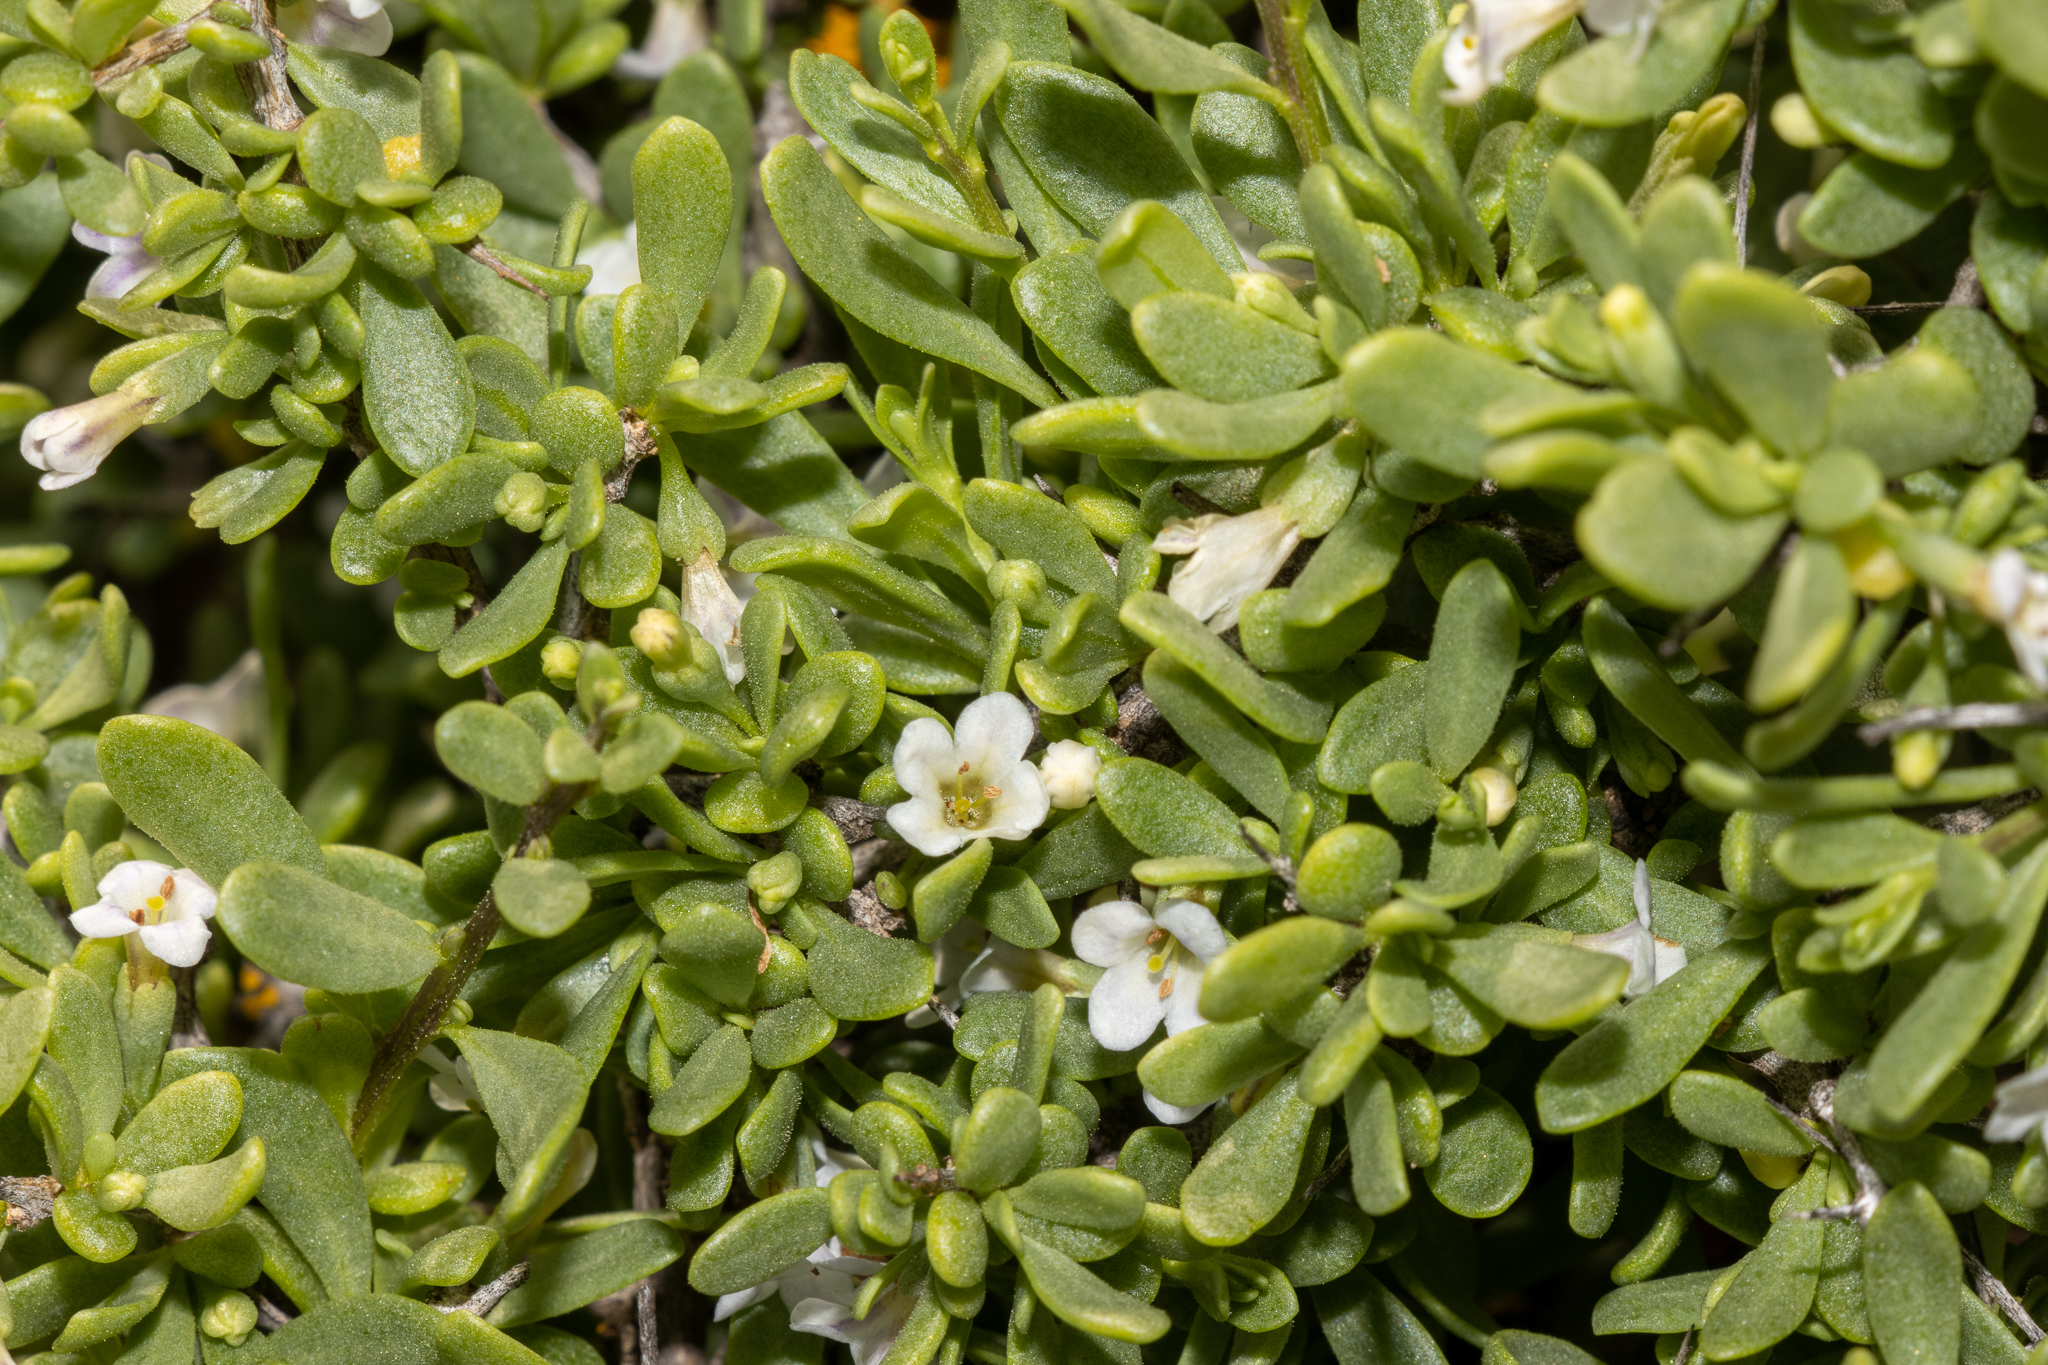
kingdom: Plantae
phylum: Tracheophyta
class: Magnoliopsida
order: Solanales
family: Solanaceae
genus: Lycium
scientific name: Lycium australe
